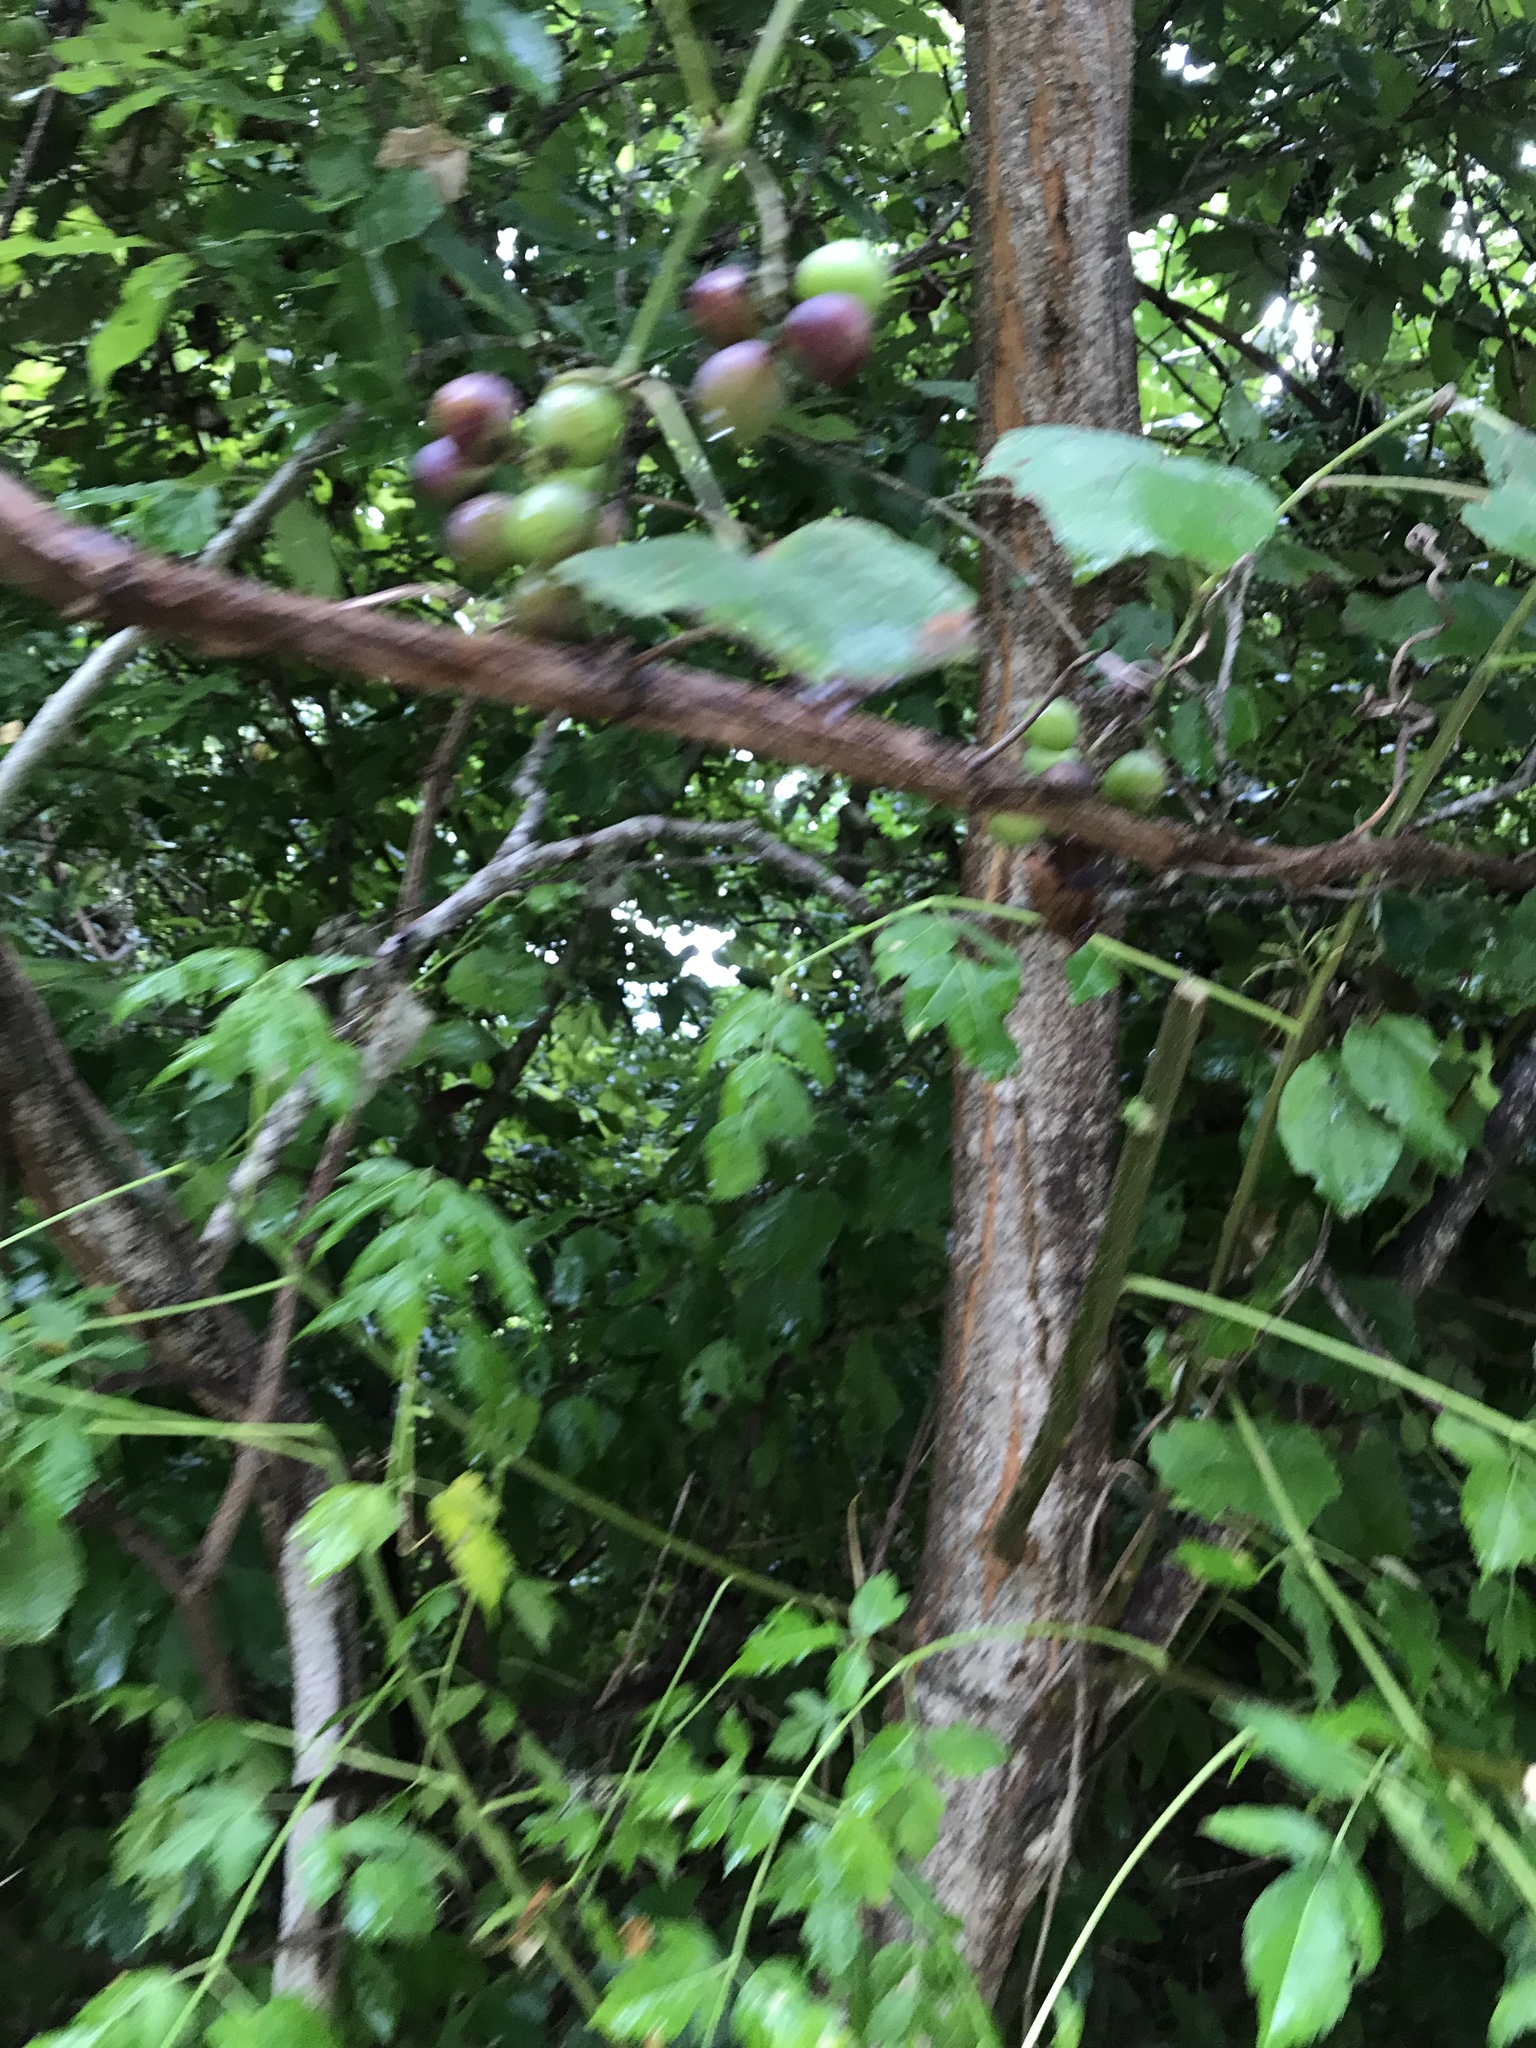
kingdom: Plantae
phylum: Tracheophyta
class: Magnoliopsida
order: Vitales
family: Vitaceae
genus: Vitis
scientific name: Vitis mustangensis
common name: Mustang grape
